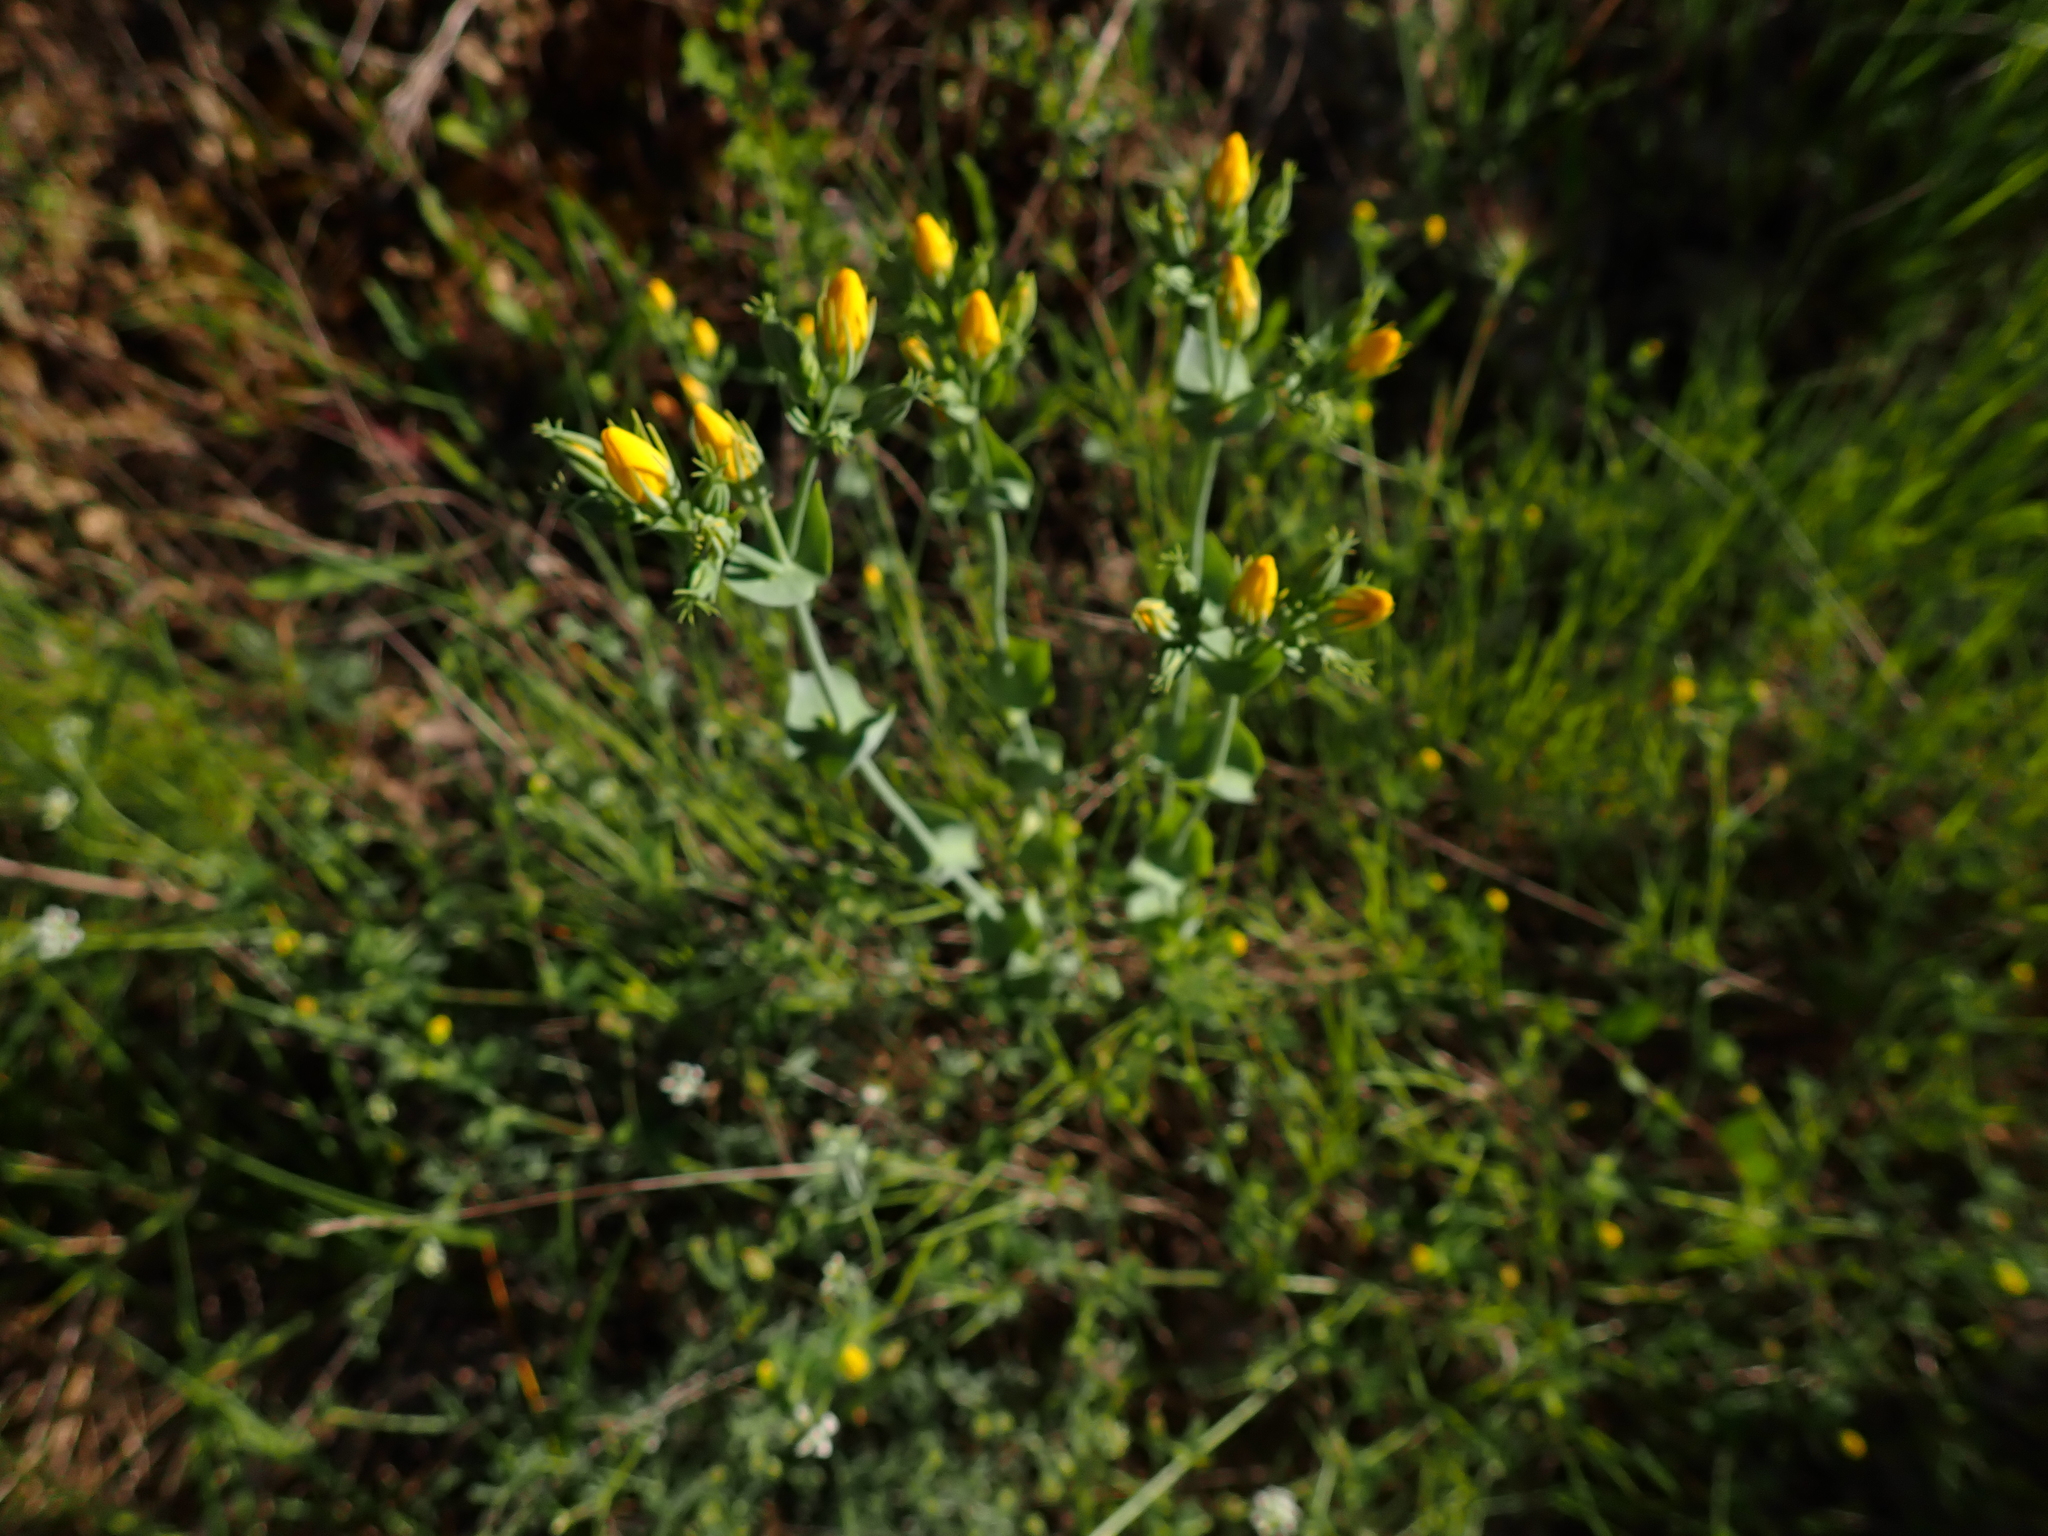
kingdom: Plantae
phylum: Tracheophyta
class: Magnoliopsida
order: Gentianales
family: Gentianaceae
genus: Blackstonia
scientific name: Blackstonia perfoliata
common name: Yellow-wort
